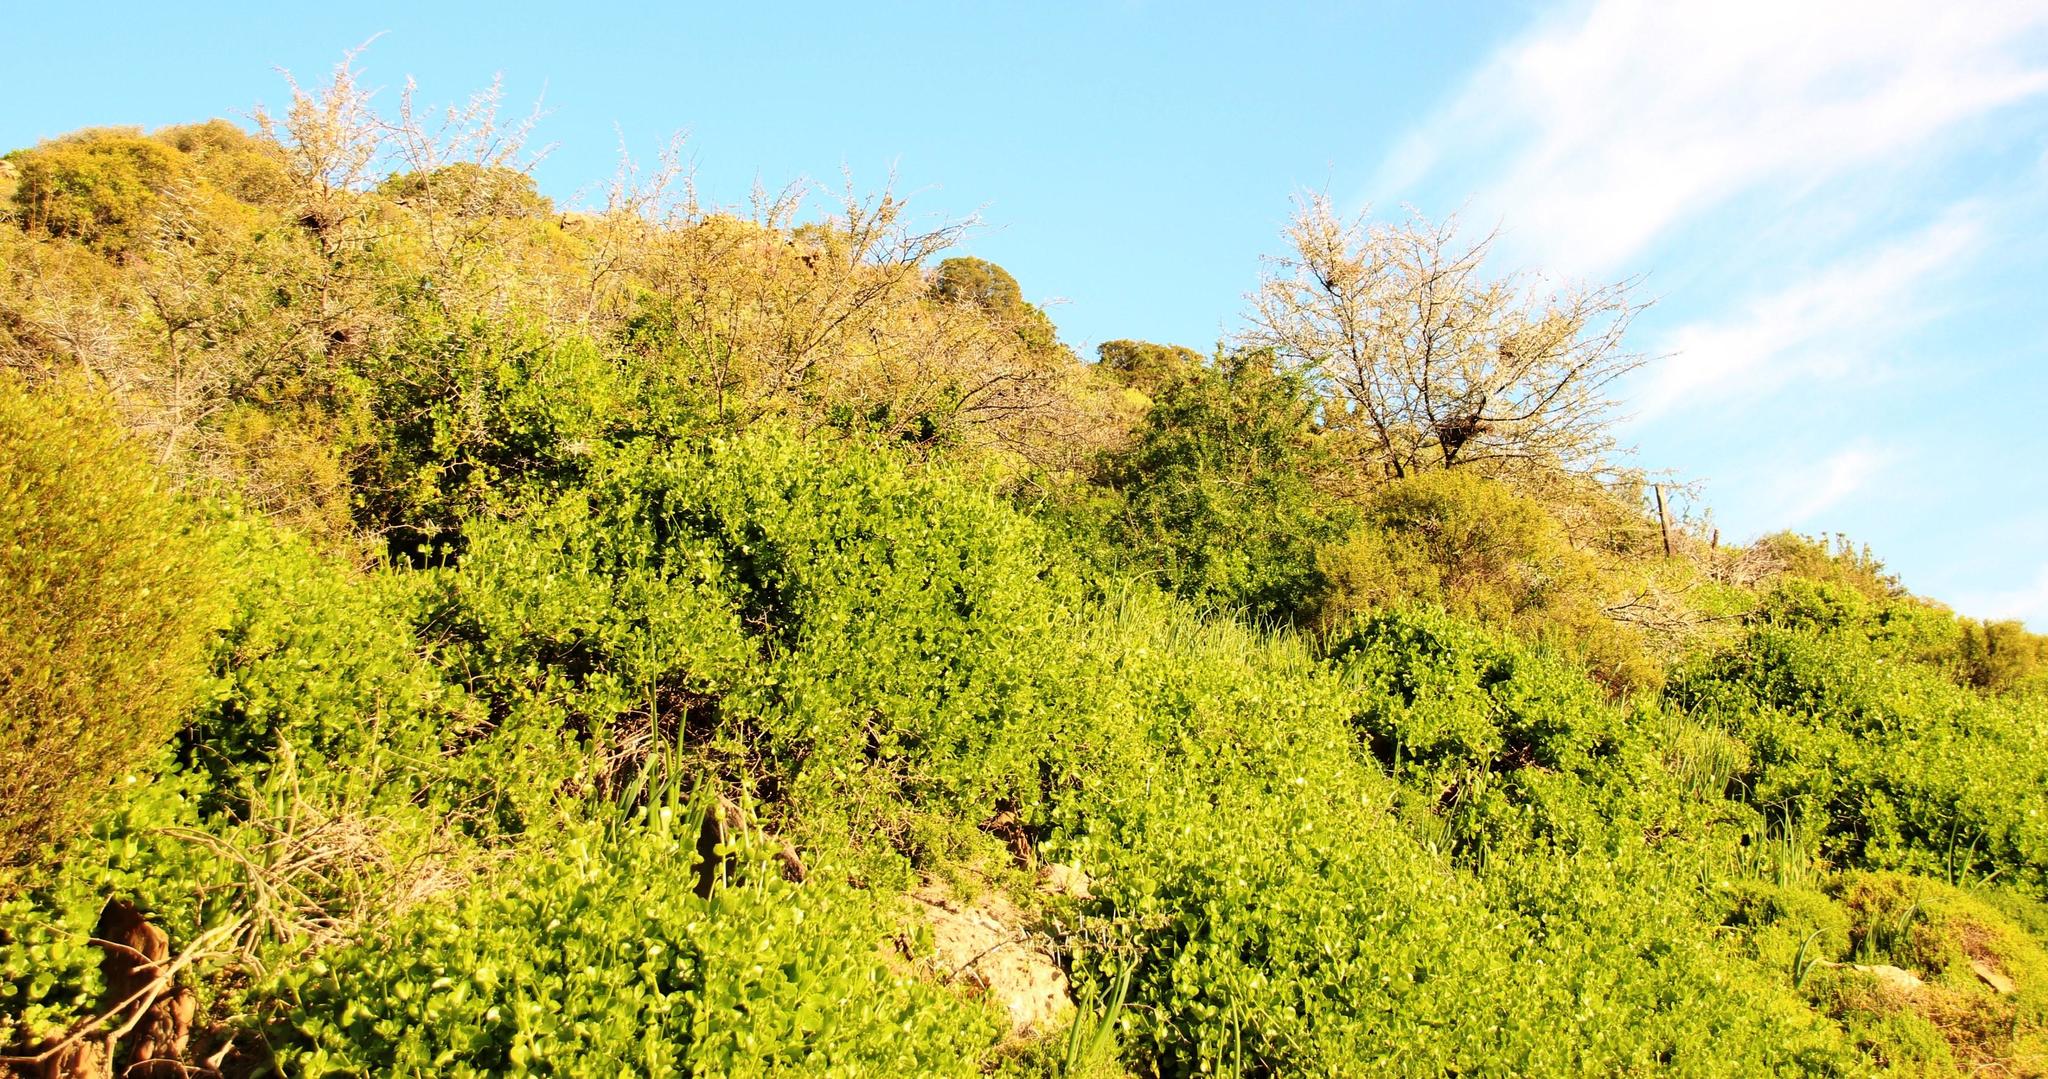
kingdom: Plantae
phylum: Tracheophyta
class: Magnoliopsida
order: Fabales
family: Fabaceae
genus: Vachellia
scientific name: Vachellia karroo
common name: Sweet thorn
